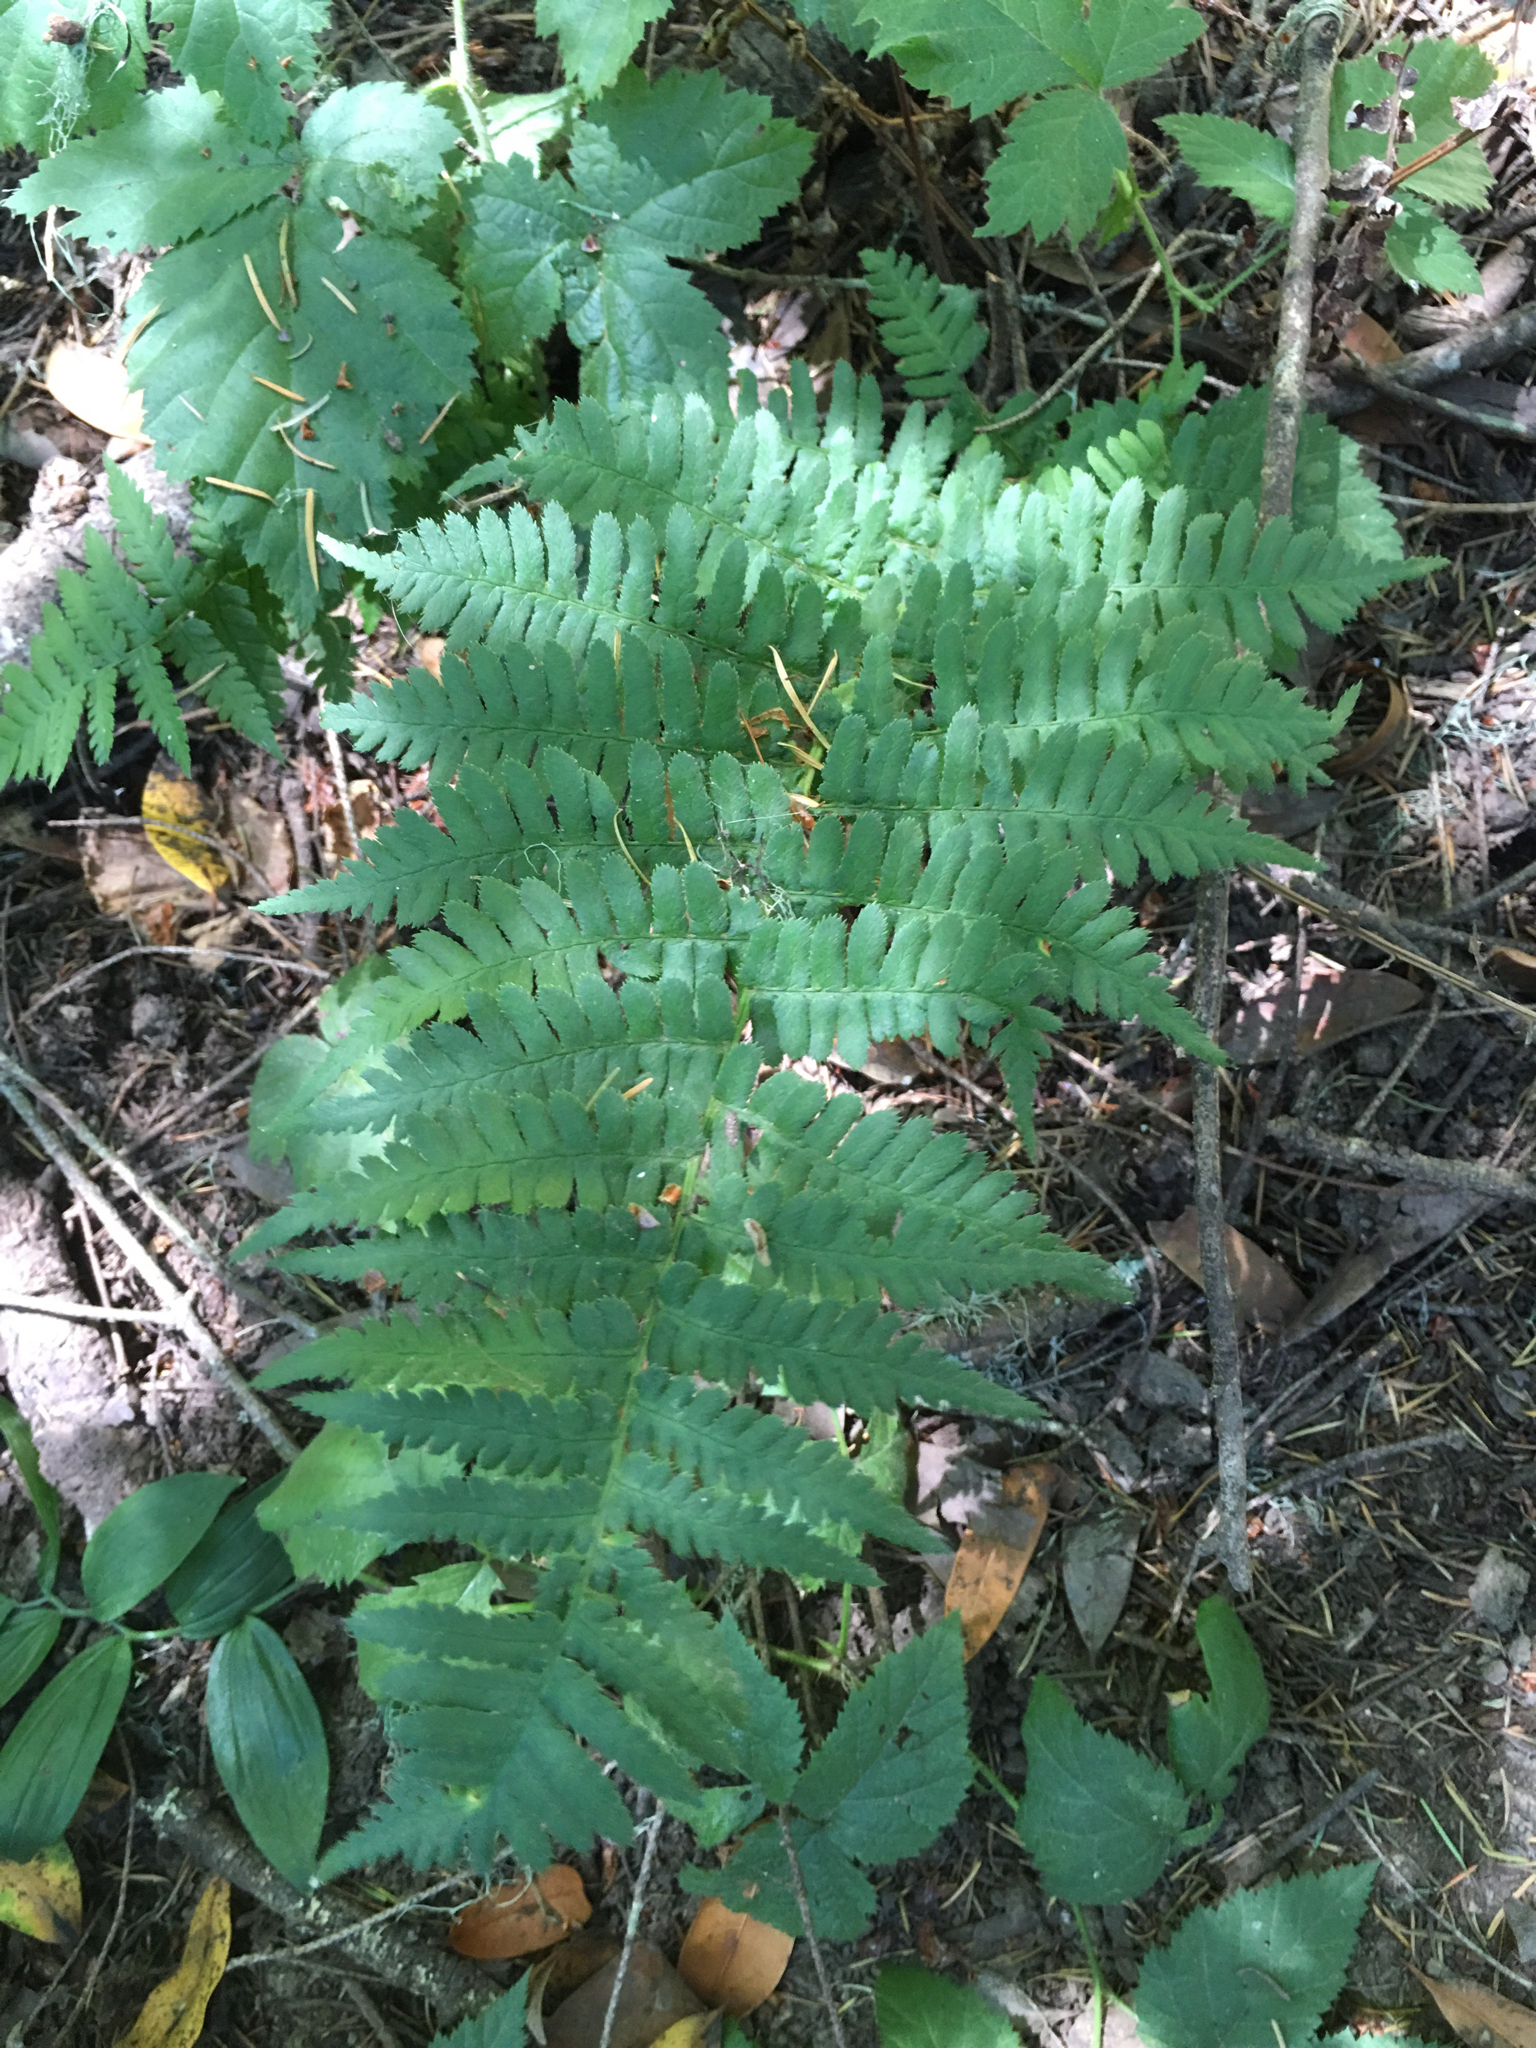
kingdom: Plantae
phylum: Tracheophyta
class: Polypodiopsida
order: Polypodiales
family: Dryopteridaceae
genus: Dryopteris
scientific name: Dryopteris arguta
